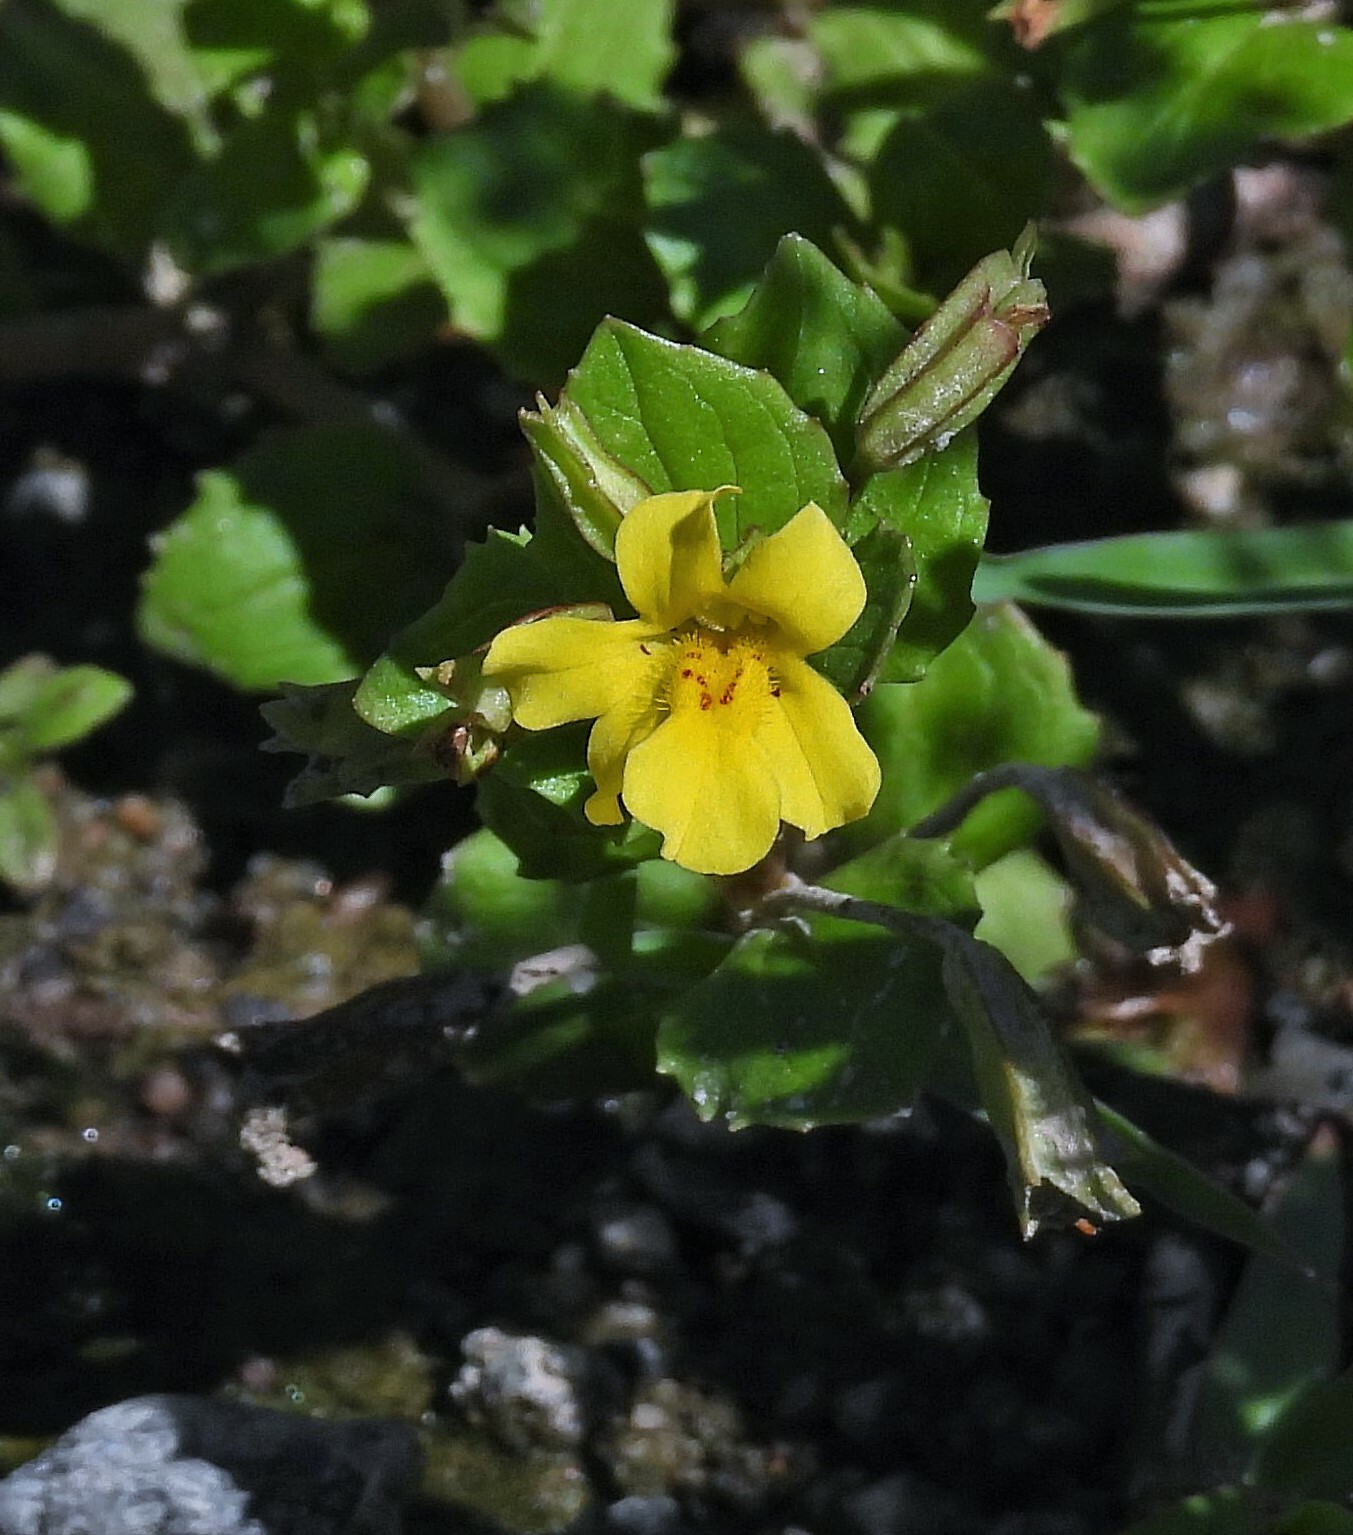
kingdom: Plantae
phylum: Tracheophyta
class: Magnoliopsida
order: Lamiales
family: Phrymaceae
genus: Erythranthe
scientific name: Erythranthe glabrata
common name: Round-leaved monkeyflower
